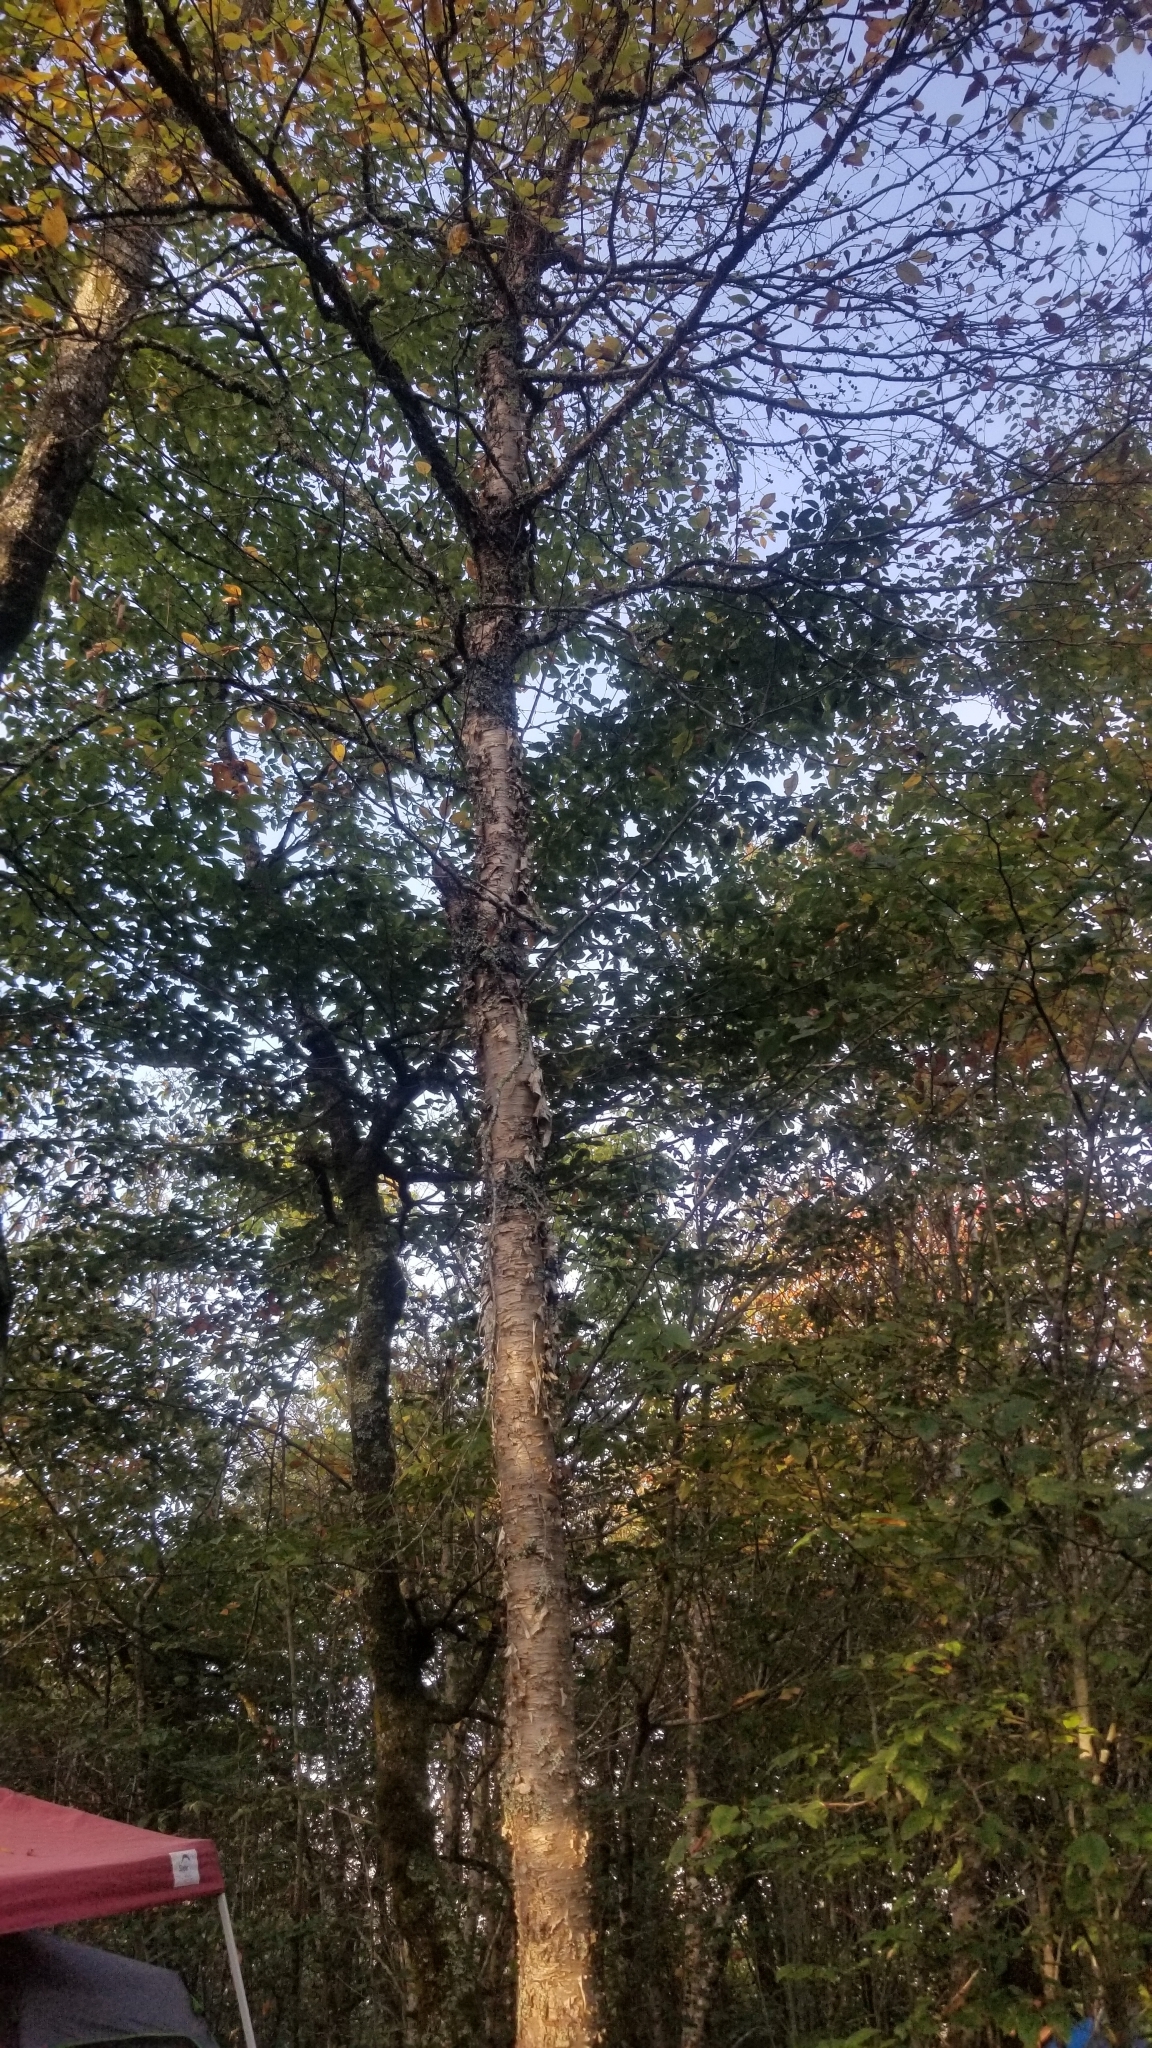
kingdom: Plantae
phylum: Tracheophyta
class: Magnoliopsida
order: Fagales
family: Betulaceae
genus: Betula
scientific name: Betula alleghaniensis
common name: Yellow birch
